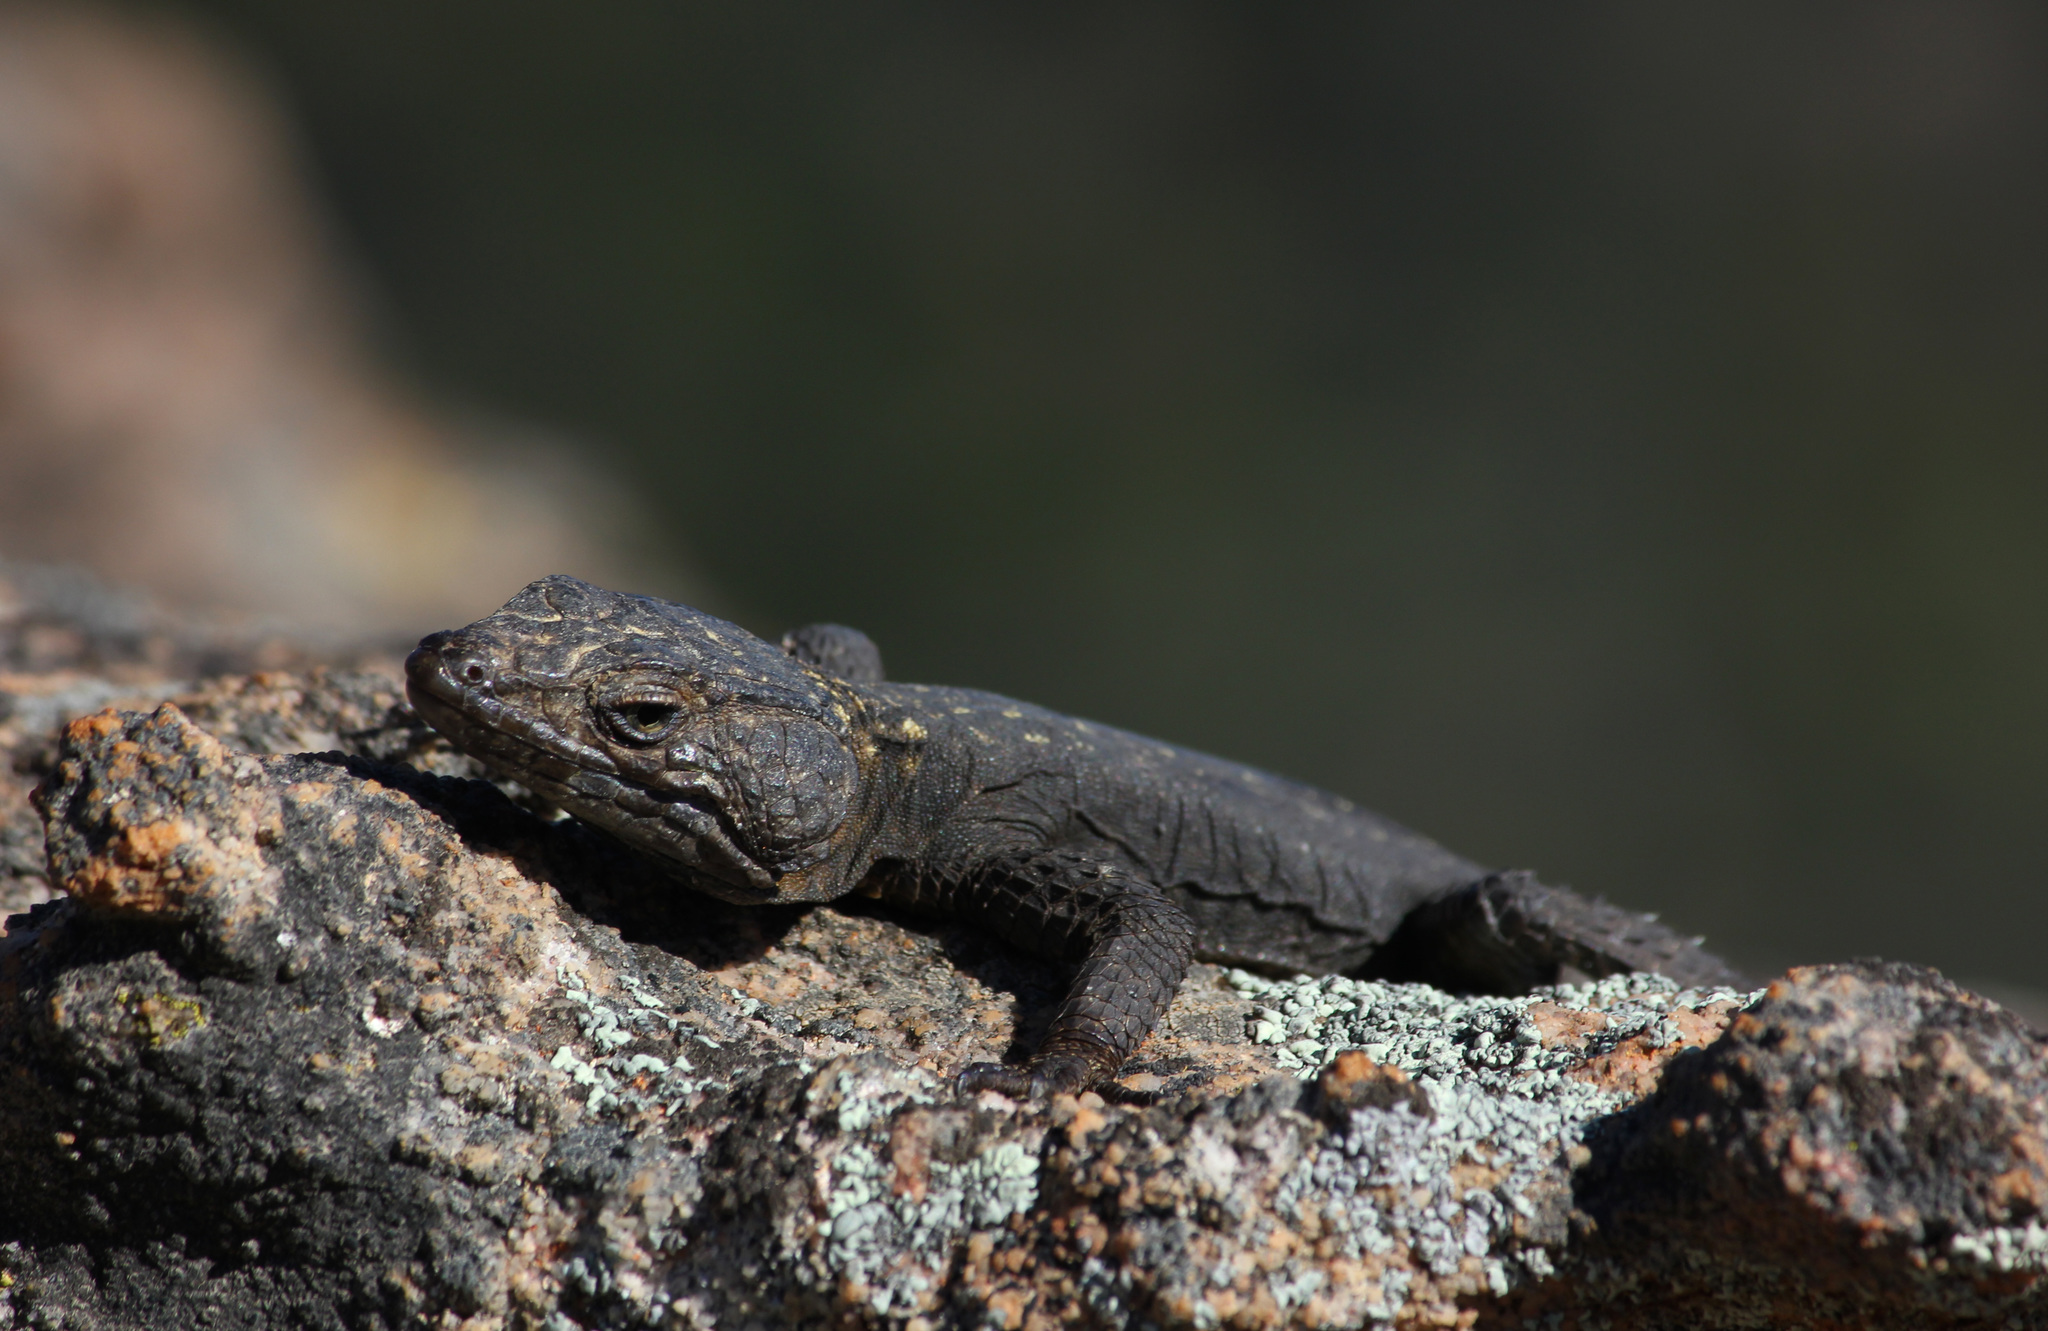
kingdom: Animalia
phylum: Chordata
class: Squamata
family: Cordylidae
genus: Hemicordylus
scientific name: Hemicordylus capensis
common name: Graceful crag lizard
